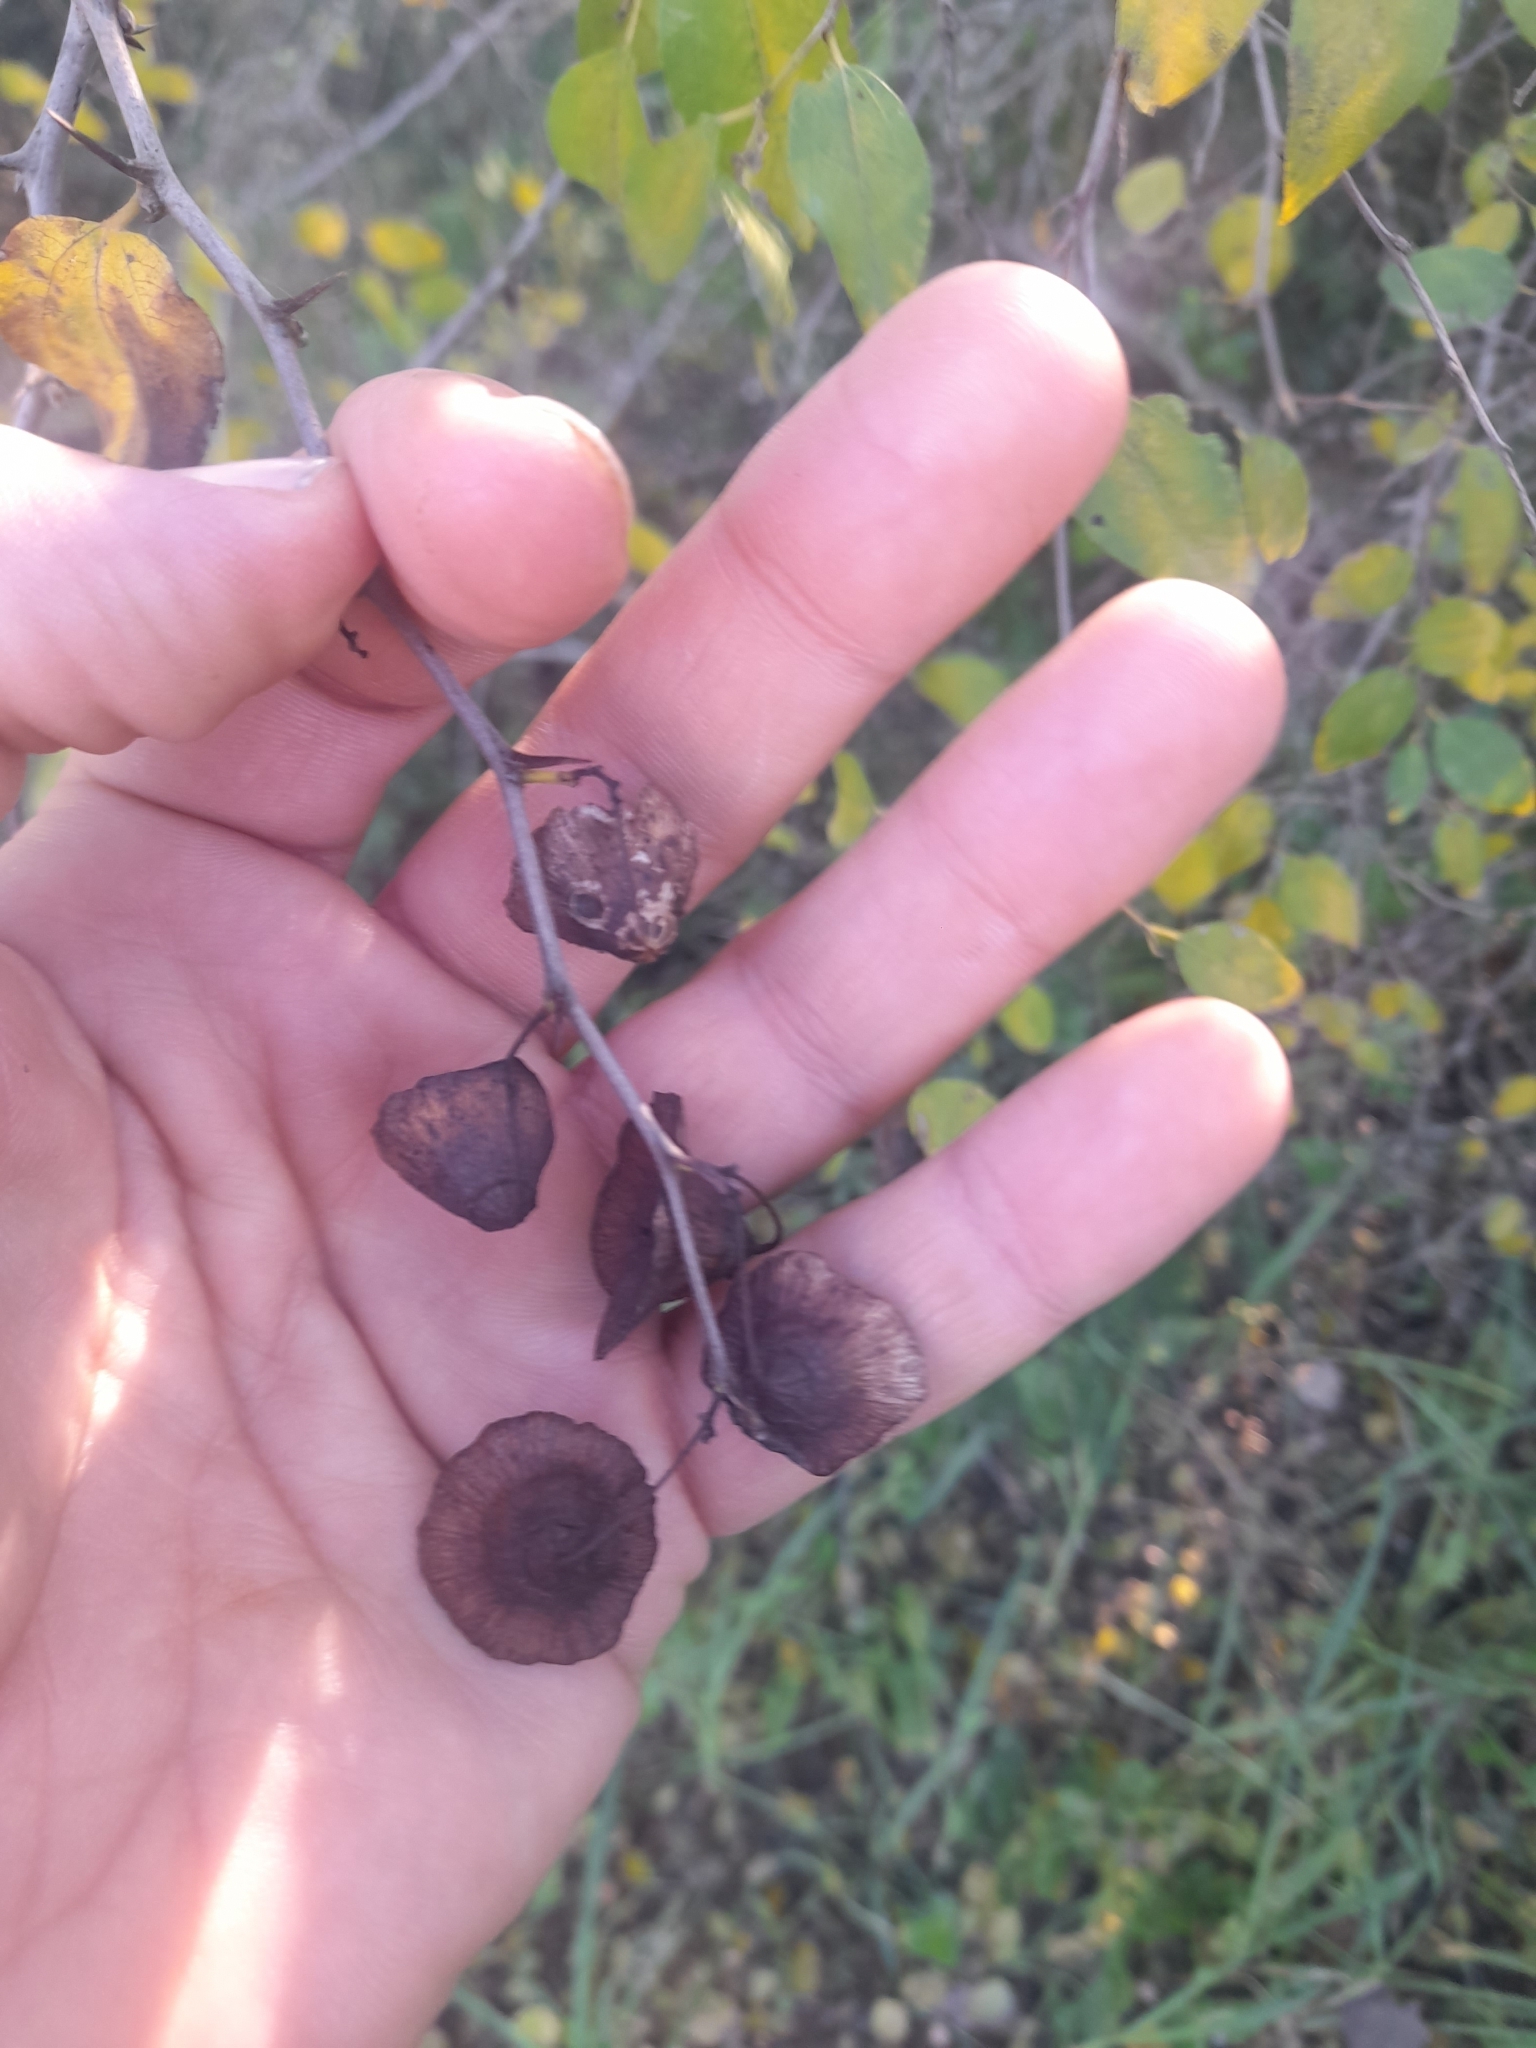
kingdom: Plantae
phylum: Tracheophyta
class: Magnoliopsida
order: Rosales
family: Rhamnaceae
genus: Paliurus
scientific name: Paliurus spina-christi
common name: Jeruselem thorn
